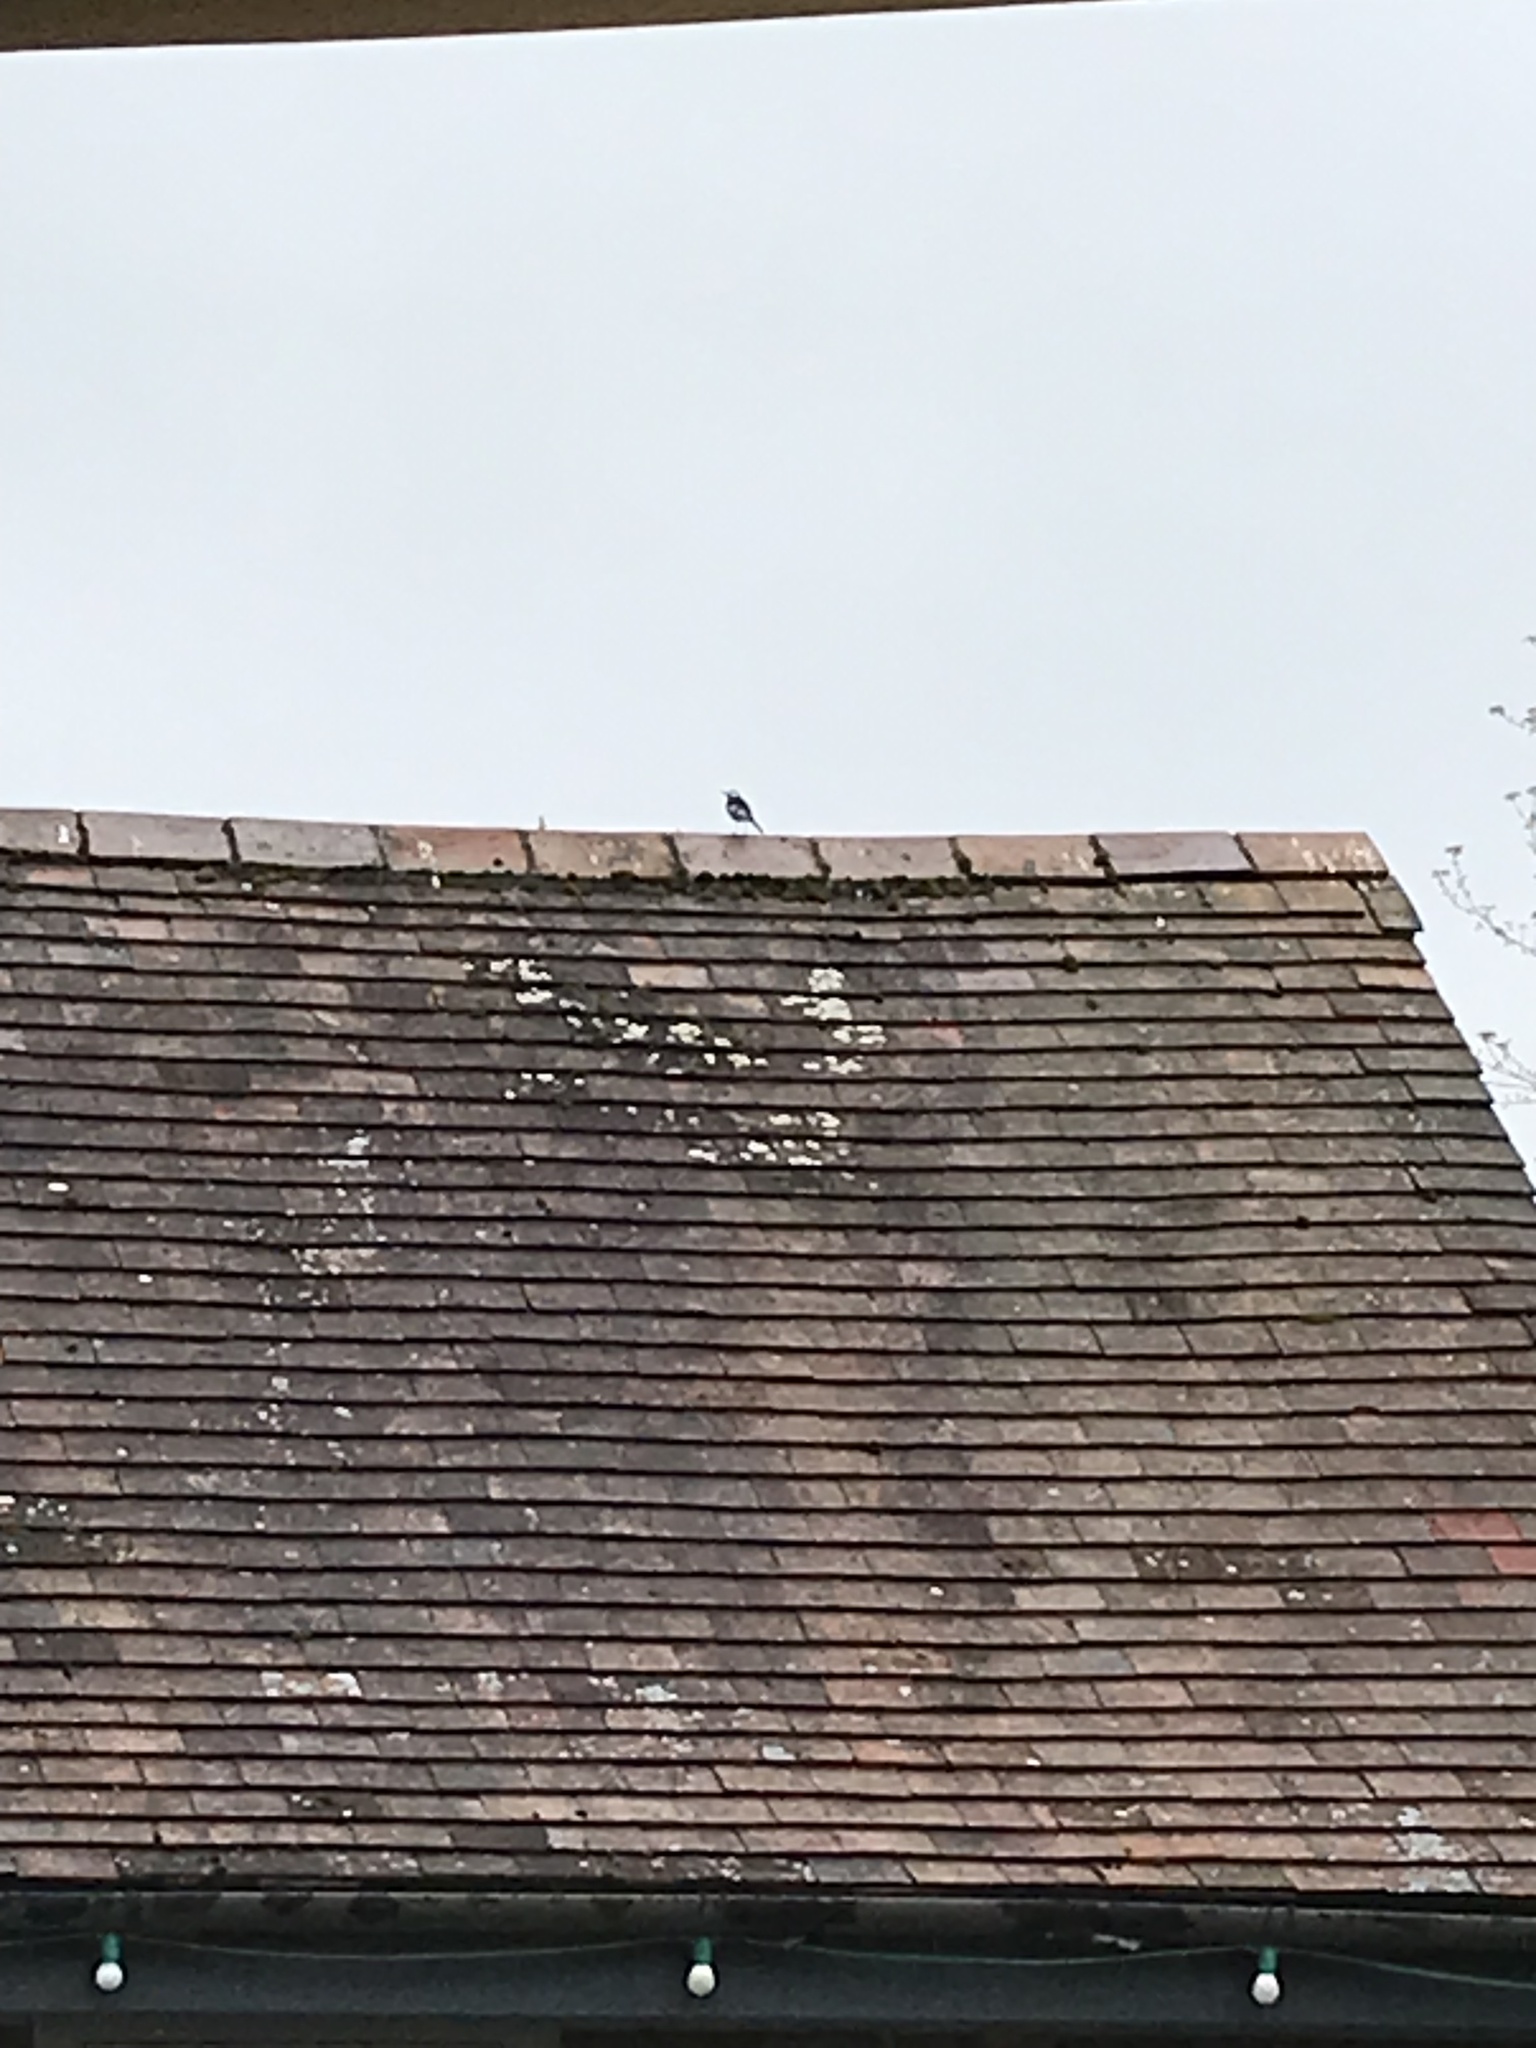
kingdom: Animalia
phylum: Chordata
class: Aves
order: Passeriformes
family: Motacillidae
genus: Motacilla
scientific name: Motacilla alba
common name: White wagtail
